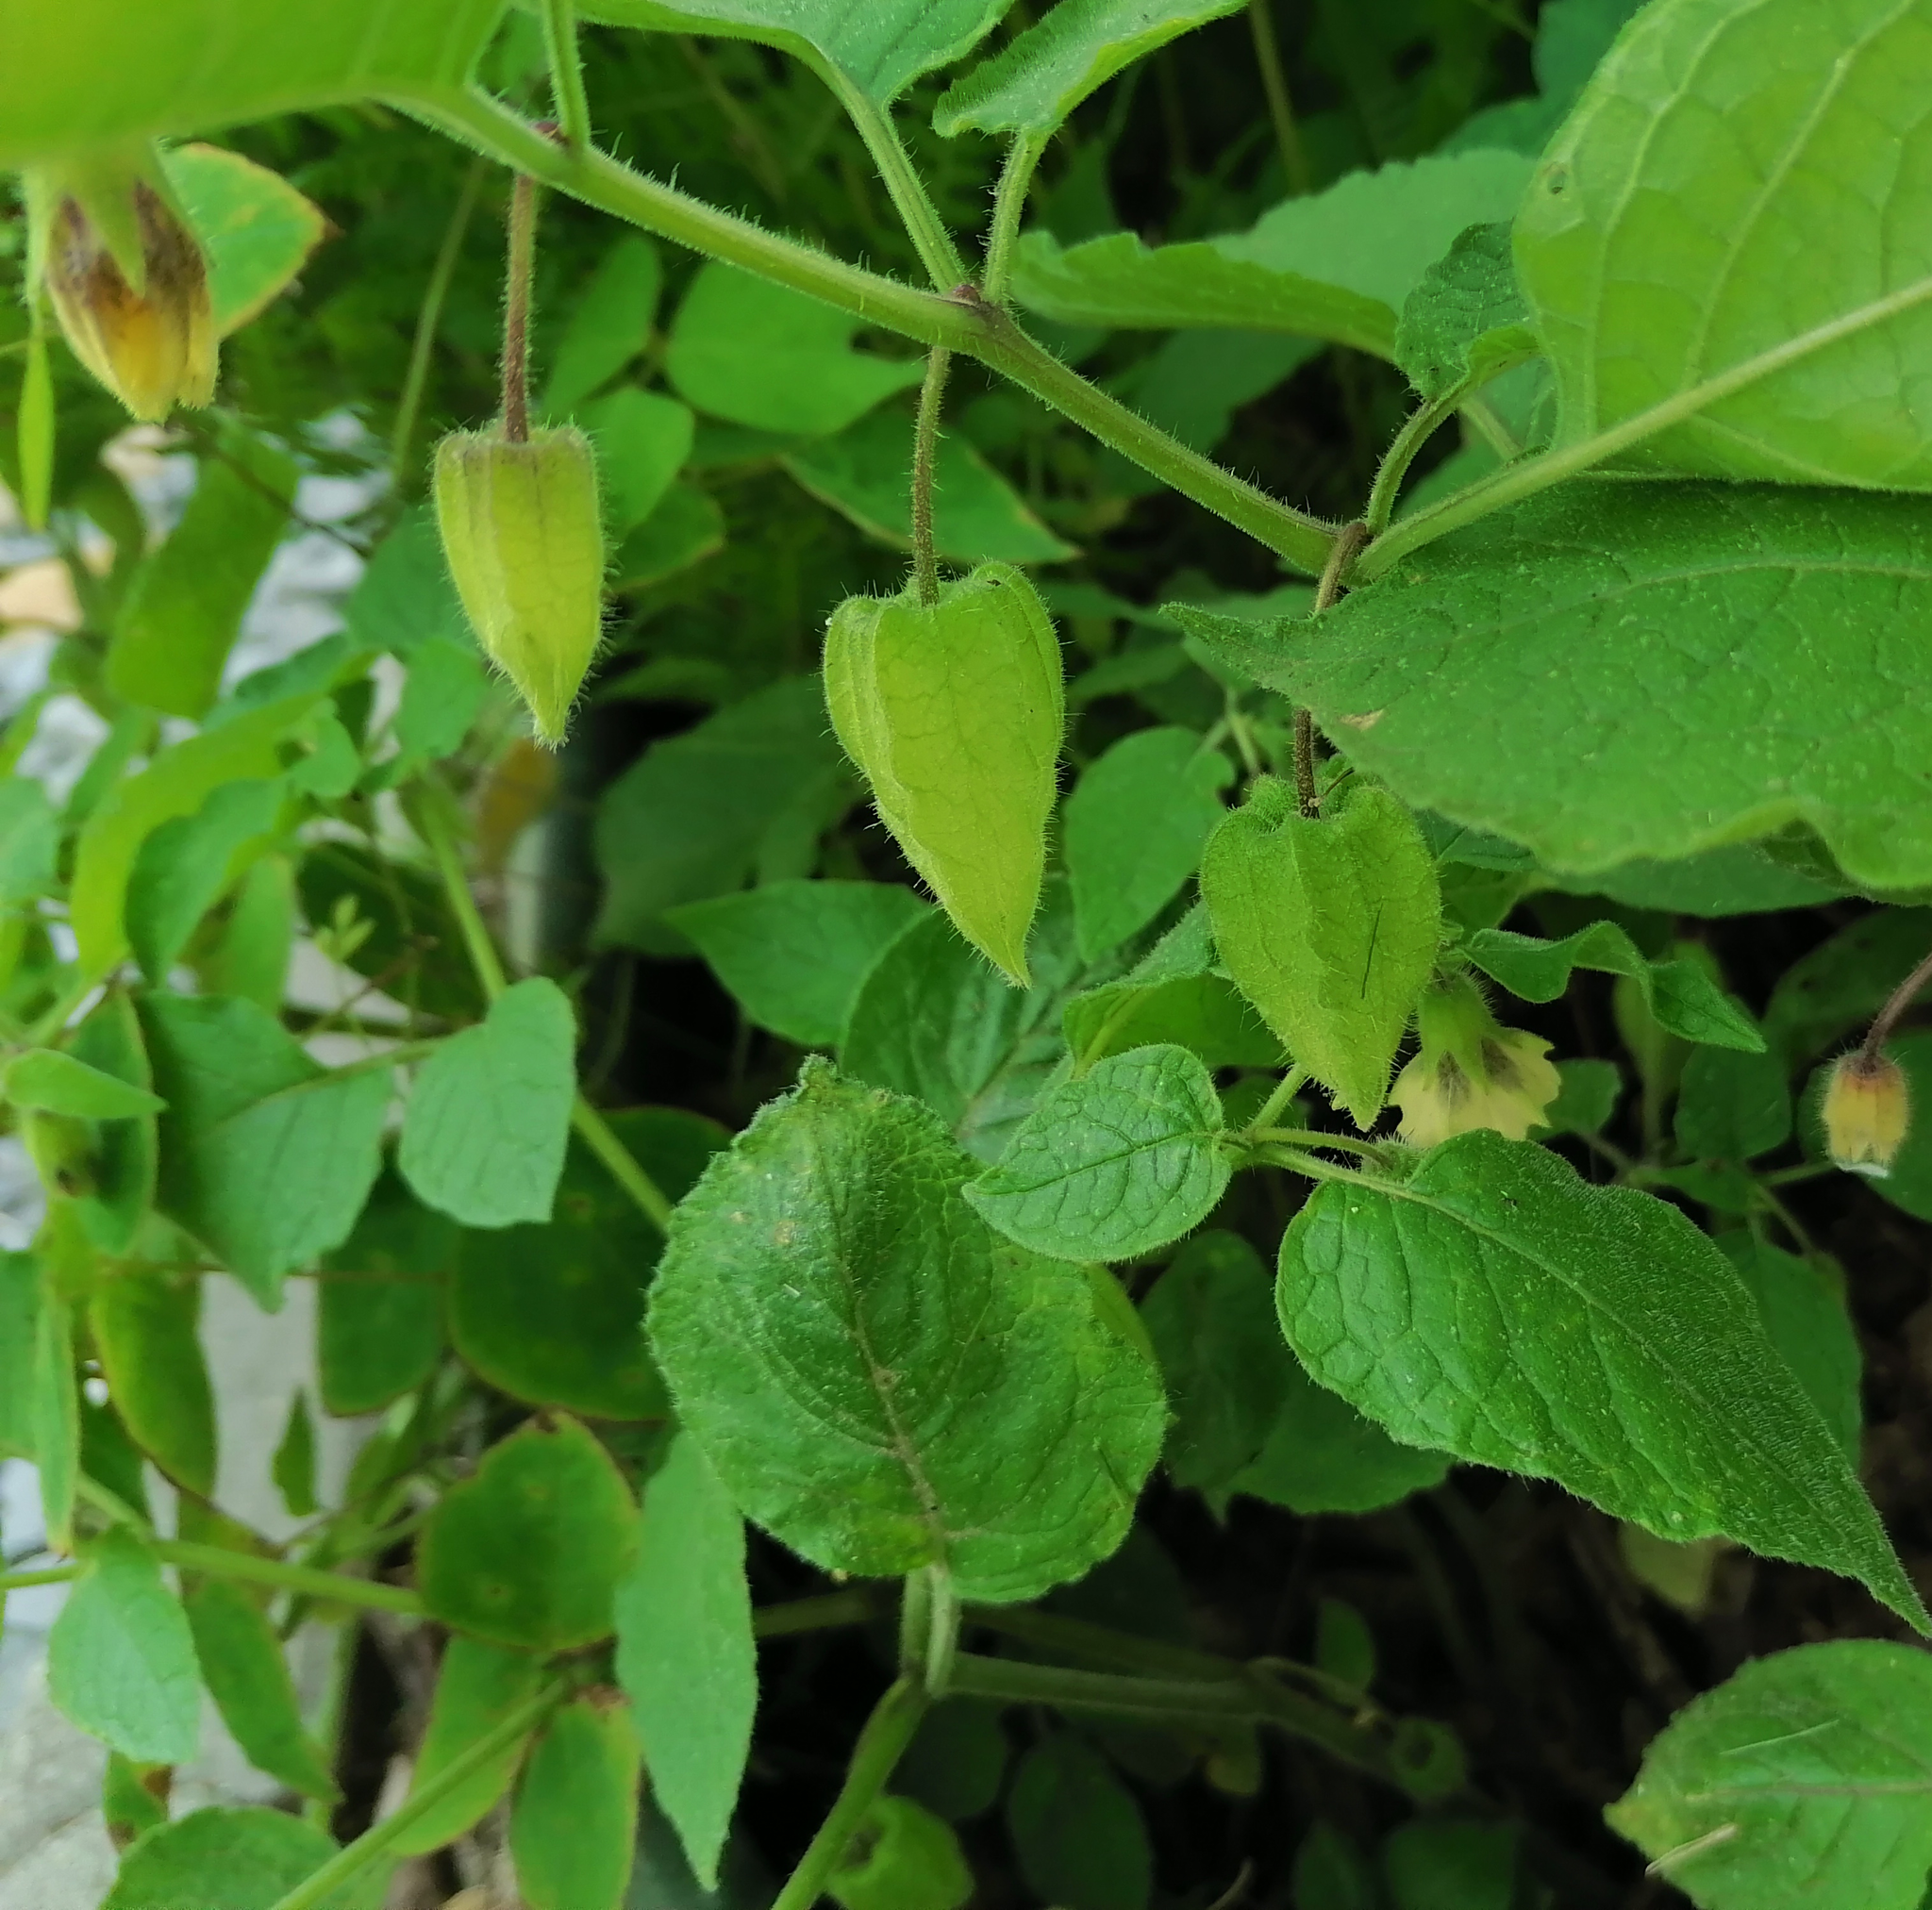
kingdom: Plantae
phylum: Tracheophyta
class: Magnoliopsida
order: Solanales
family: Solanaceae
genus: Physalis
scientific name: Physalis heterophylla
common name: Clammy ground-cherry
